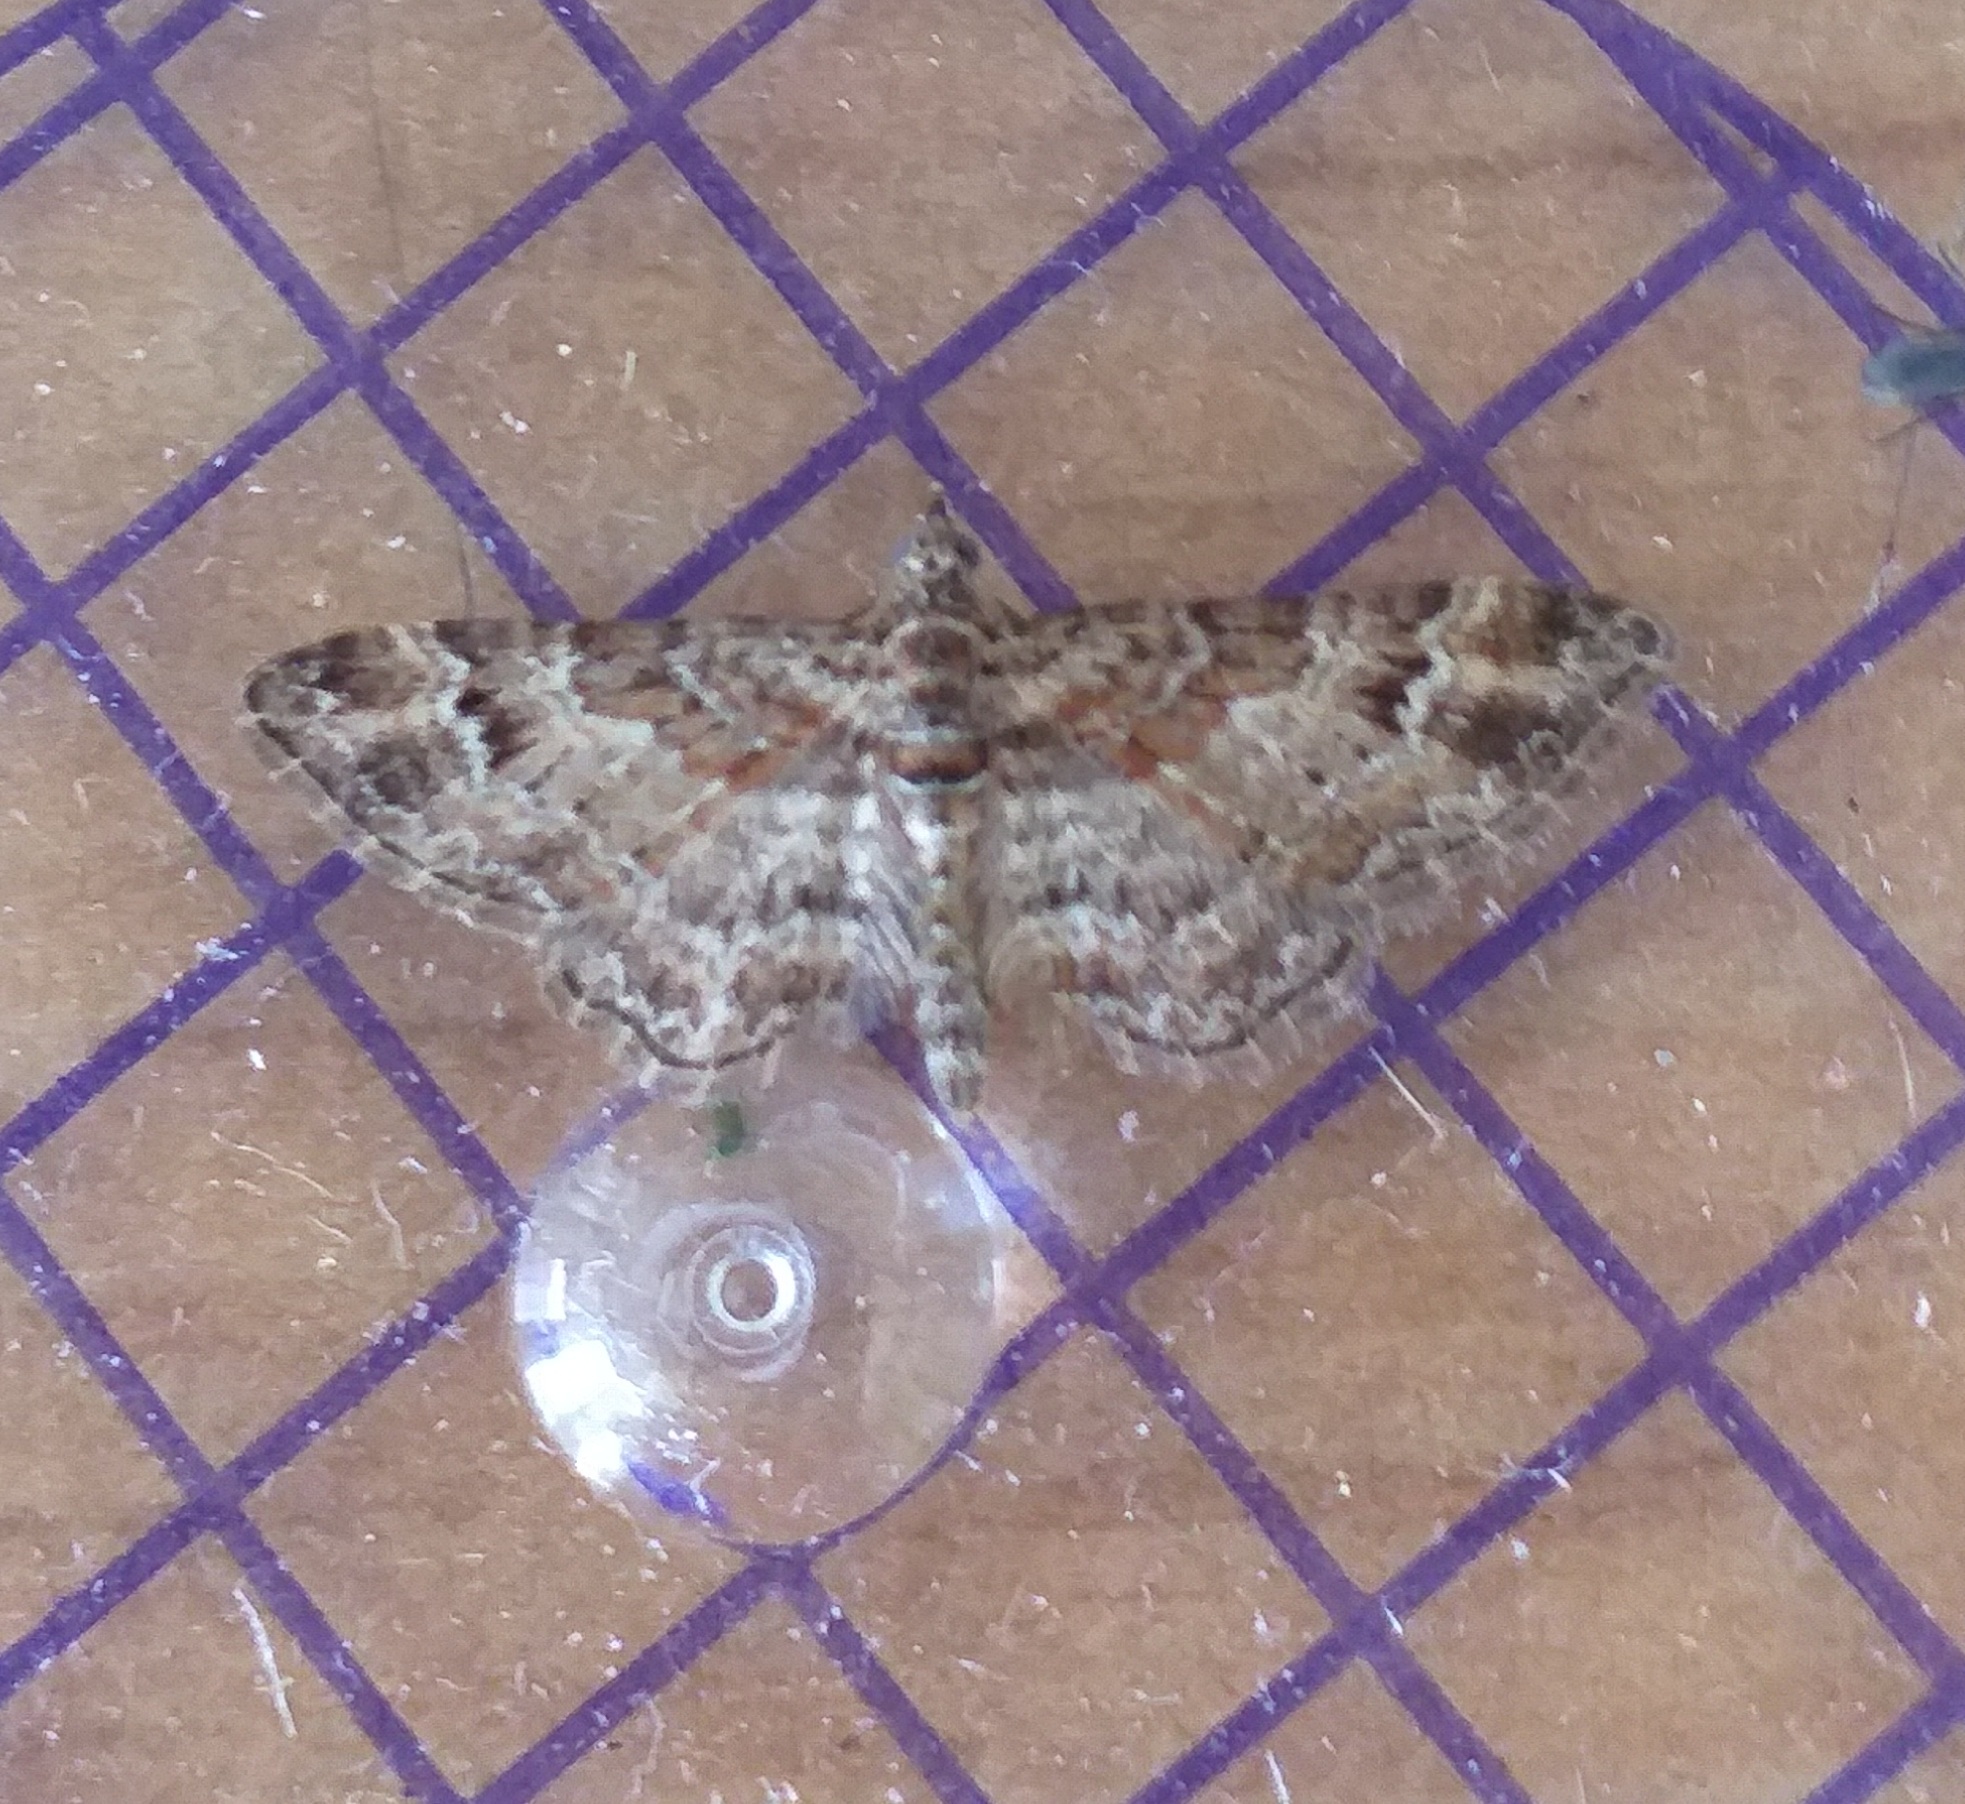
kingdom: Animalia
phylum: Arthropoda
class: Insecta
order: Lepidoptera
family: Geometridae
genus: Gymnoscelis
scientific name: Gymnoscelis rufifasciata
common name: Double-striped pug
